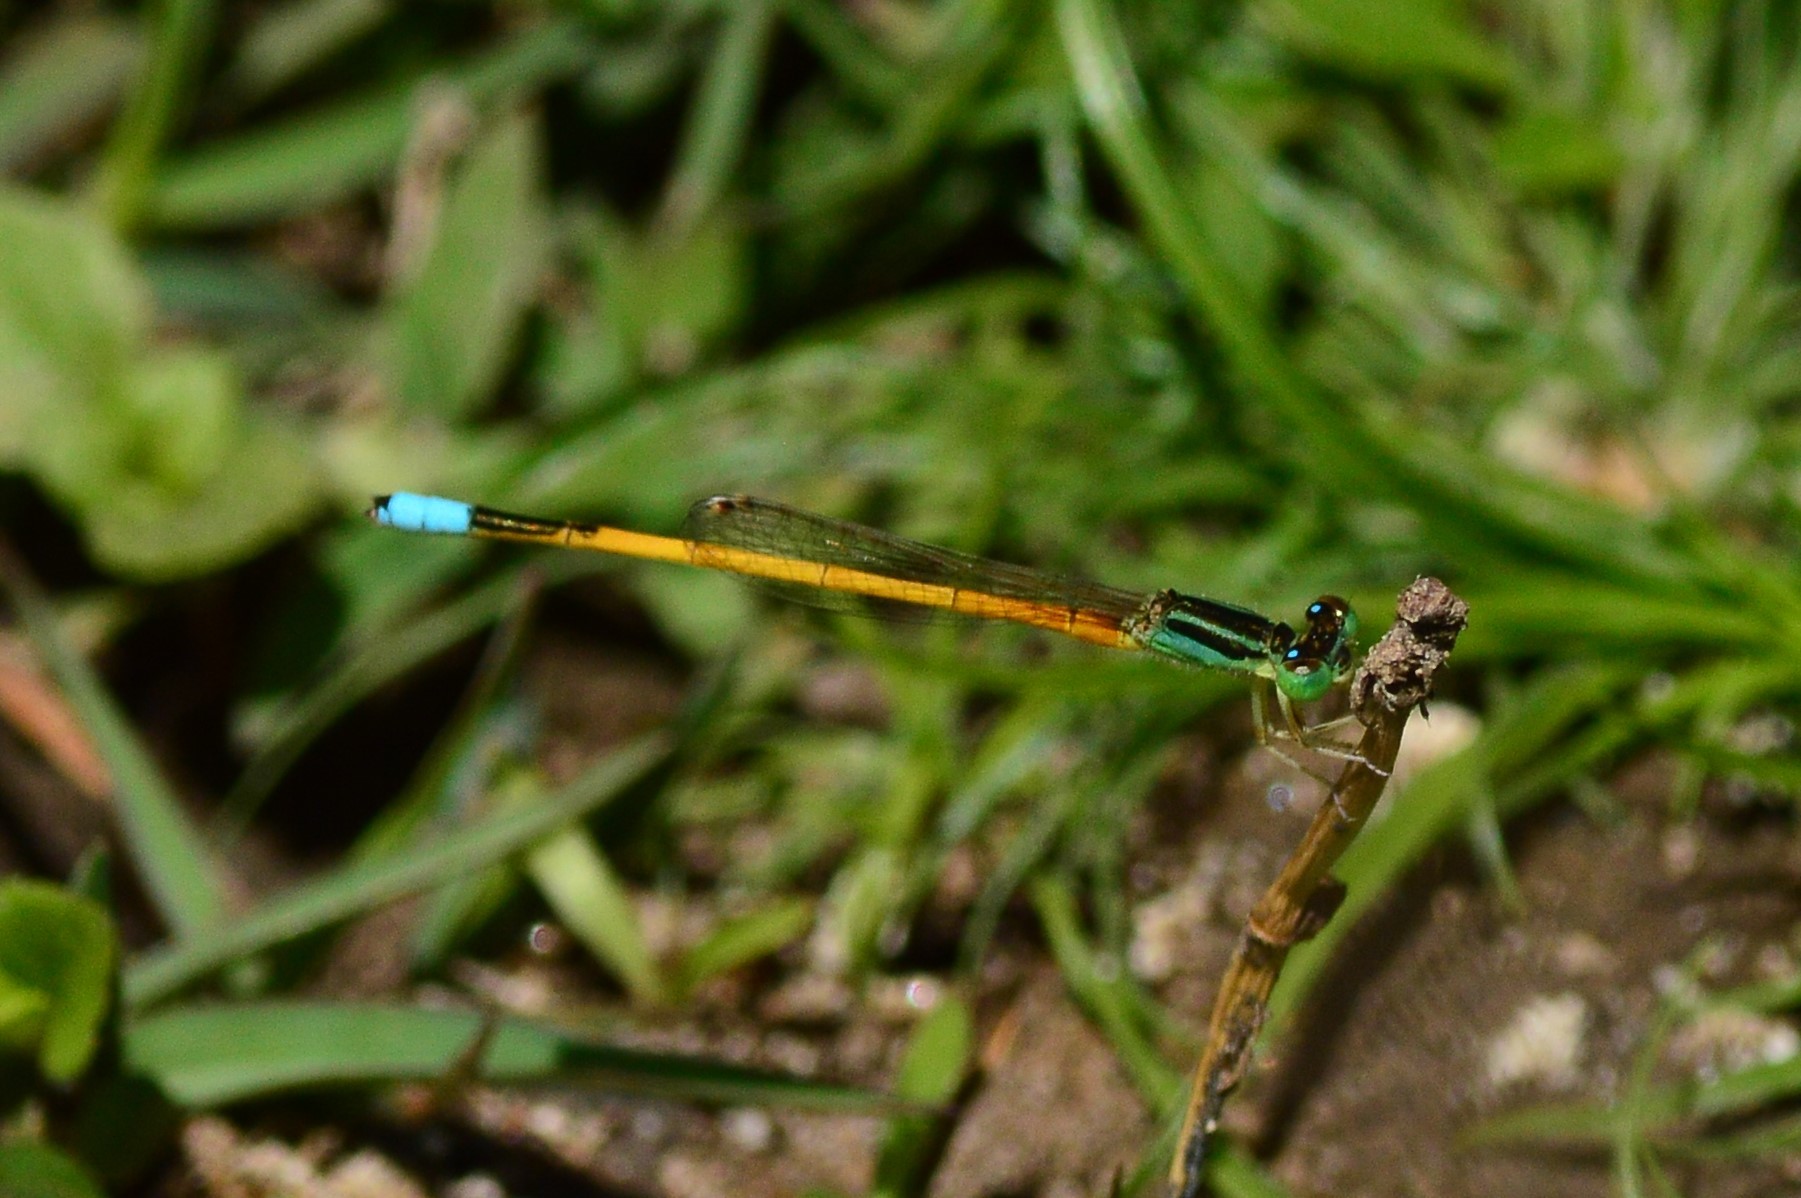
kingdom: Animalia
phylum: Arthropoda
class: Insecta
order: Odonata
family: Coenagrionidae
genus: Ischnura
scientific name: Ischnura rubilio
